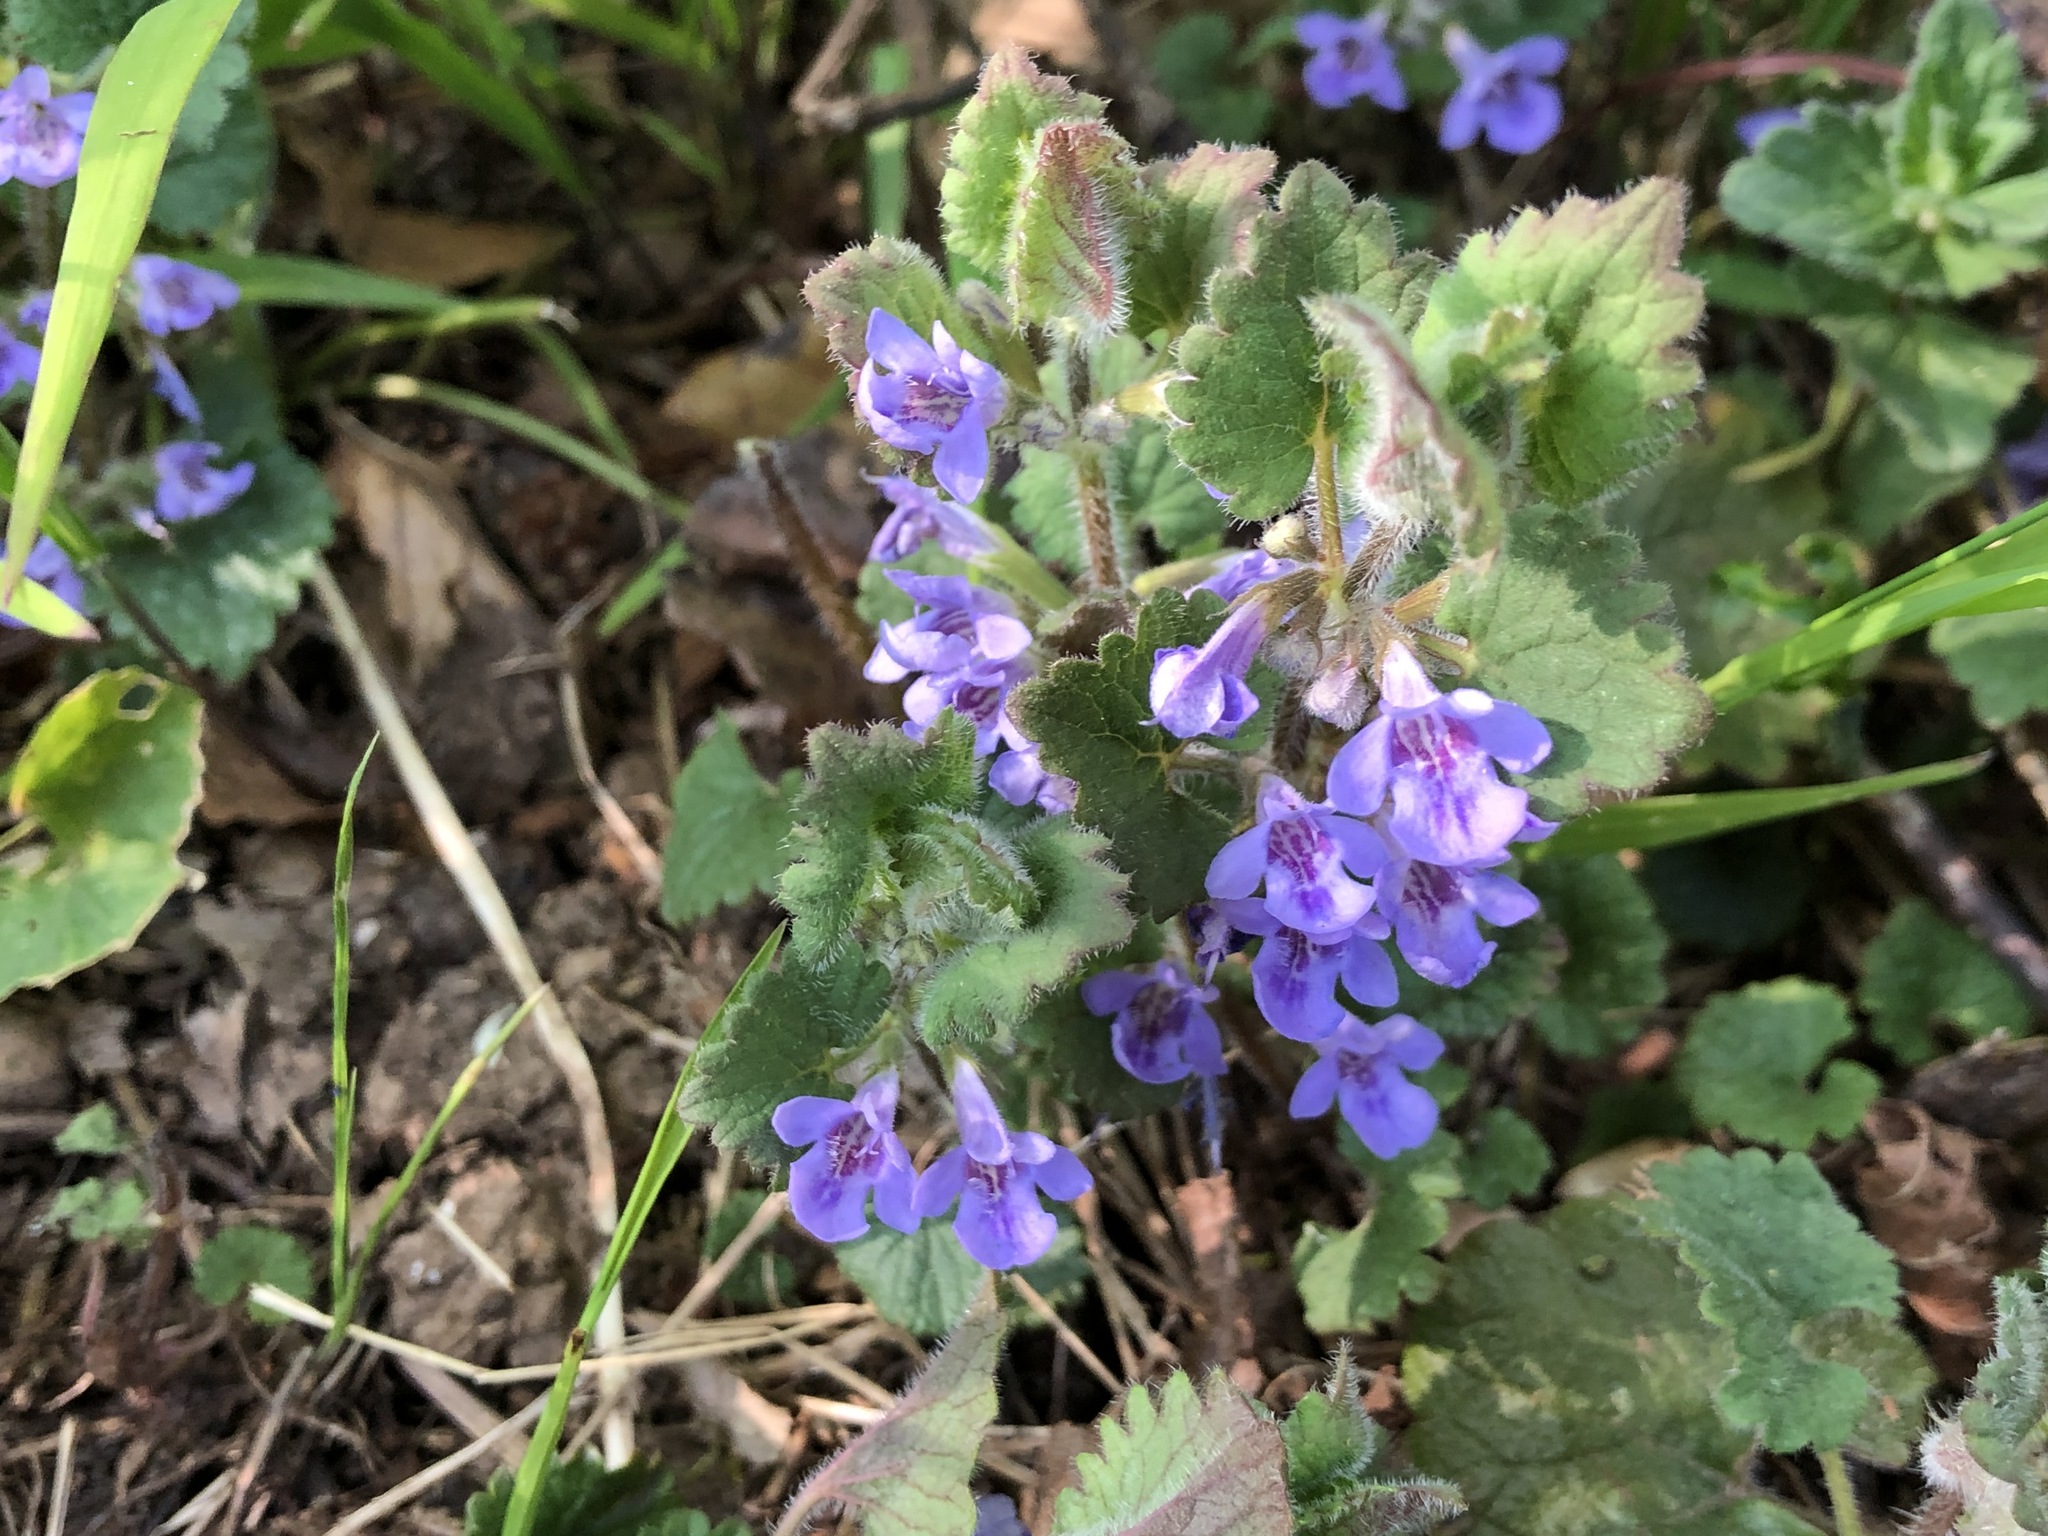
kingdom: Plantae
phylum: Tracheophyta
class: Magnoliopsida
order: Lamiales
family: Lamiaceae
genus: Glechoma
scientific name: Glechoma hederacea
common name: Ground ivy
